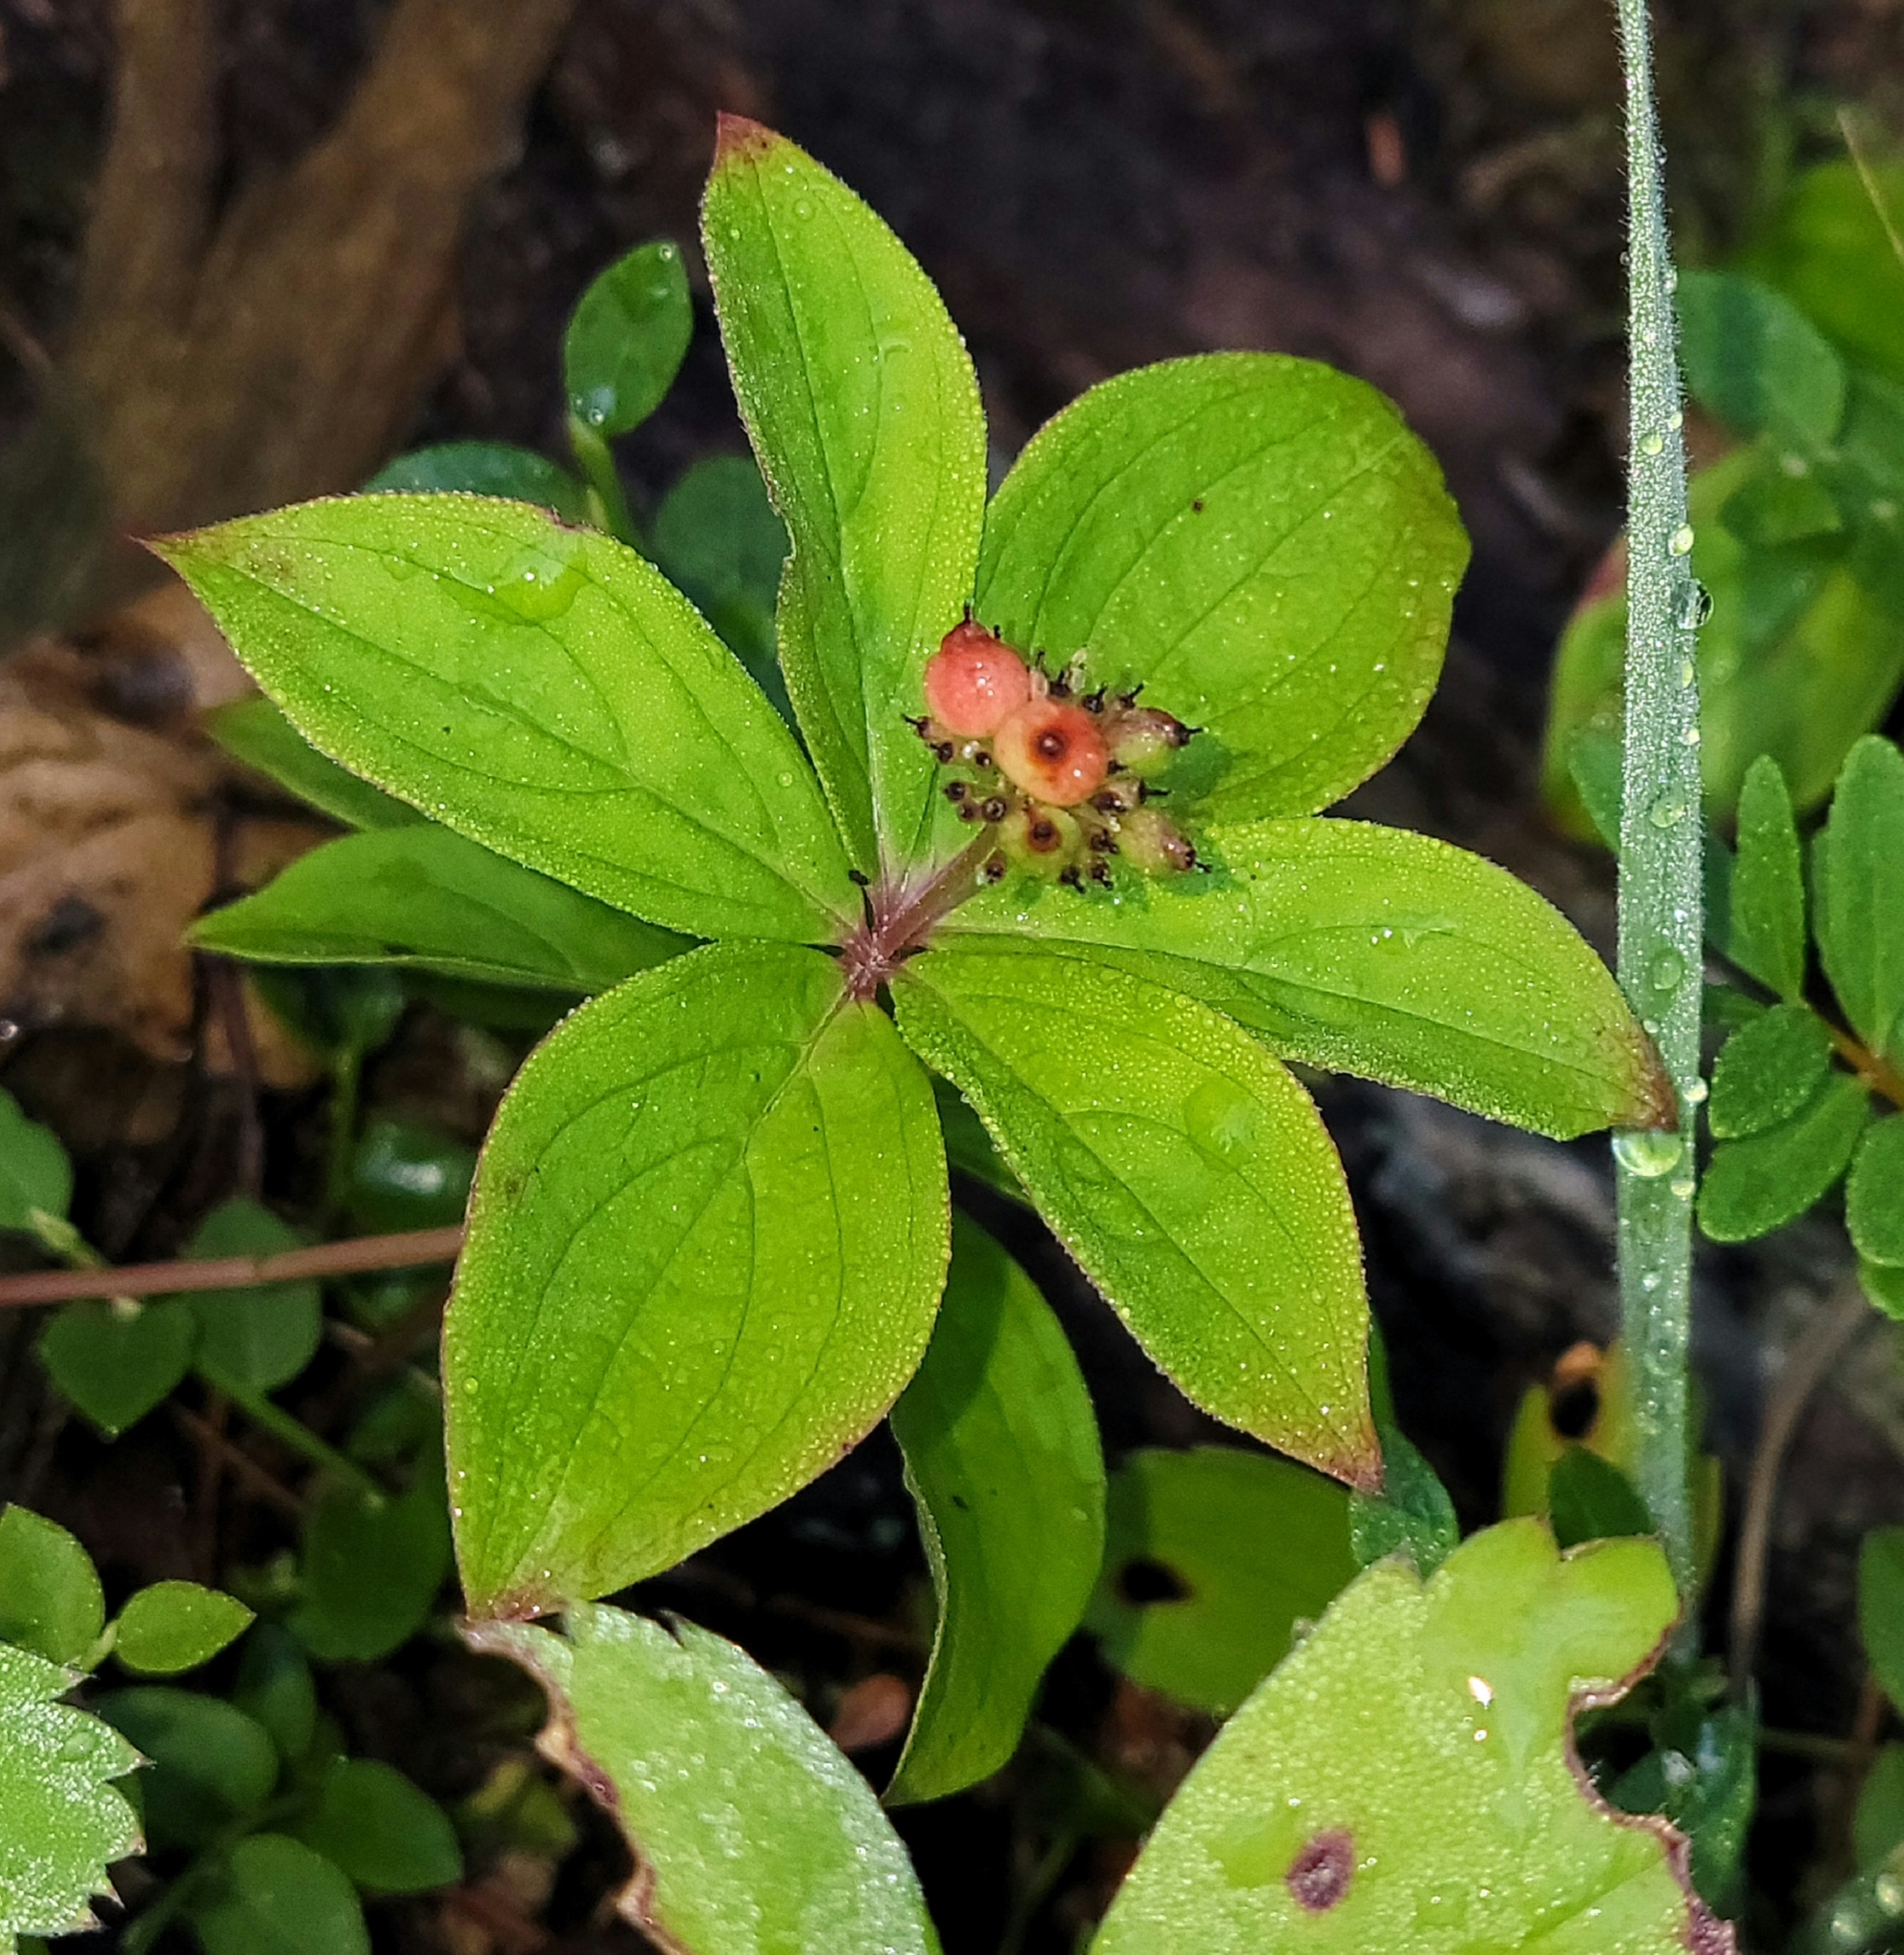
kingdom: Plantae
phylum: Tracheophyta
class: Magnoliopsida
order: Cornales
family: Cornaceae
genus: Cornus
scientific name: Cornus canadensis
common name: Creeping dogwood
